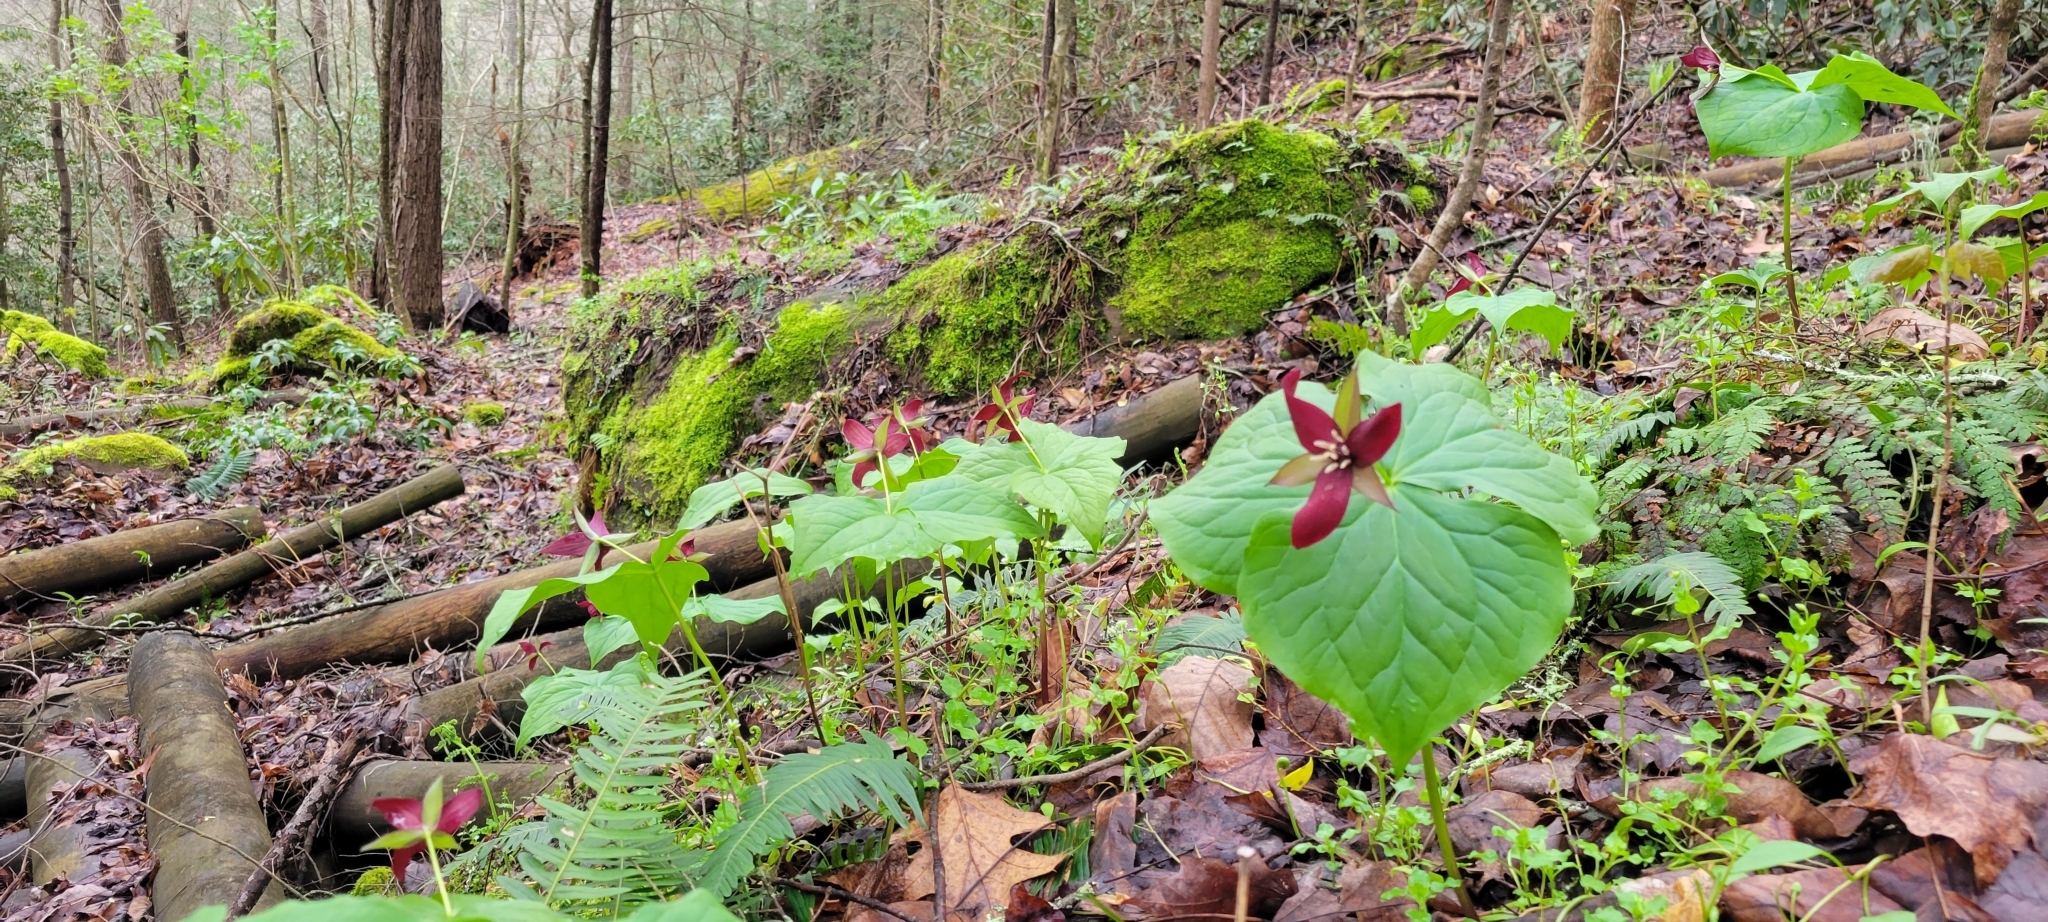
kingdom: Plantae
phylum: Tracheophyta
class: Liliopsida
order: Liliales
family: Melanthiaceae
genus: Trillium
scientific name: Trillium erectum
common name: Purple trillium
